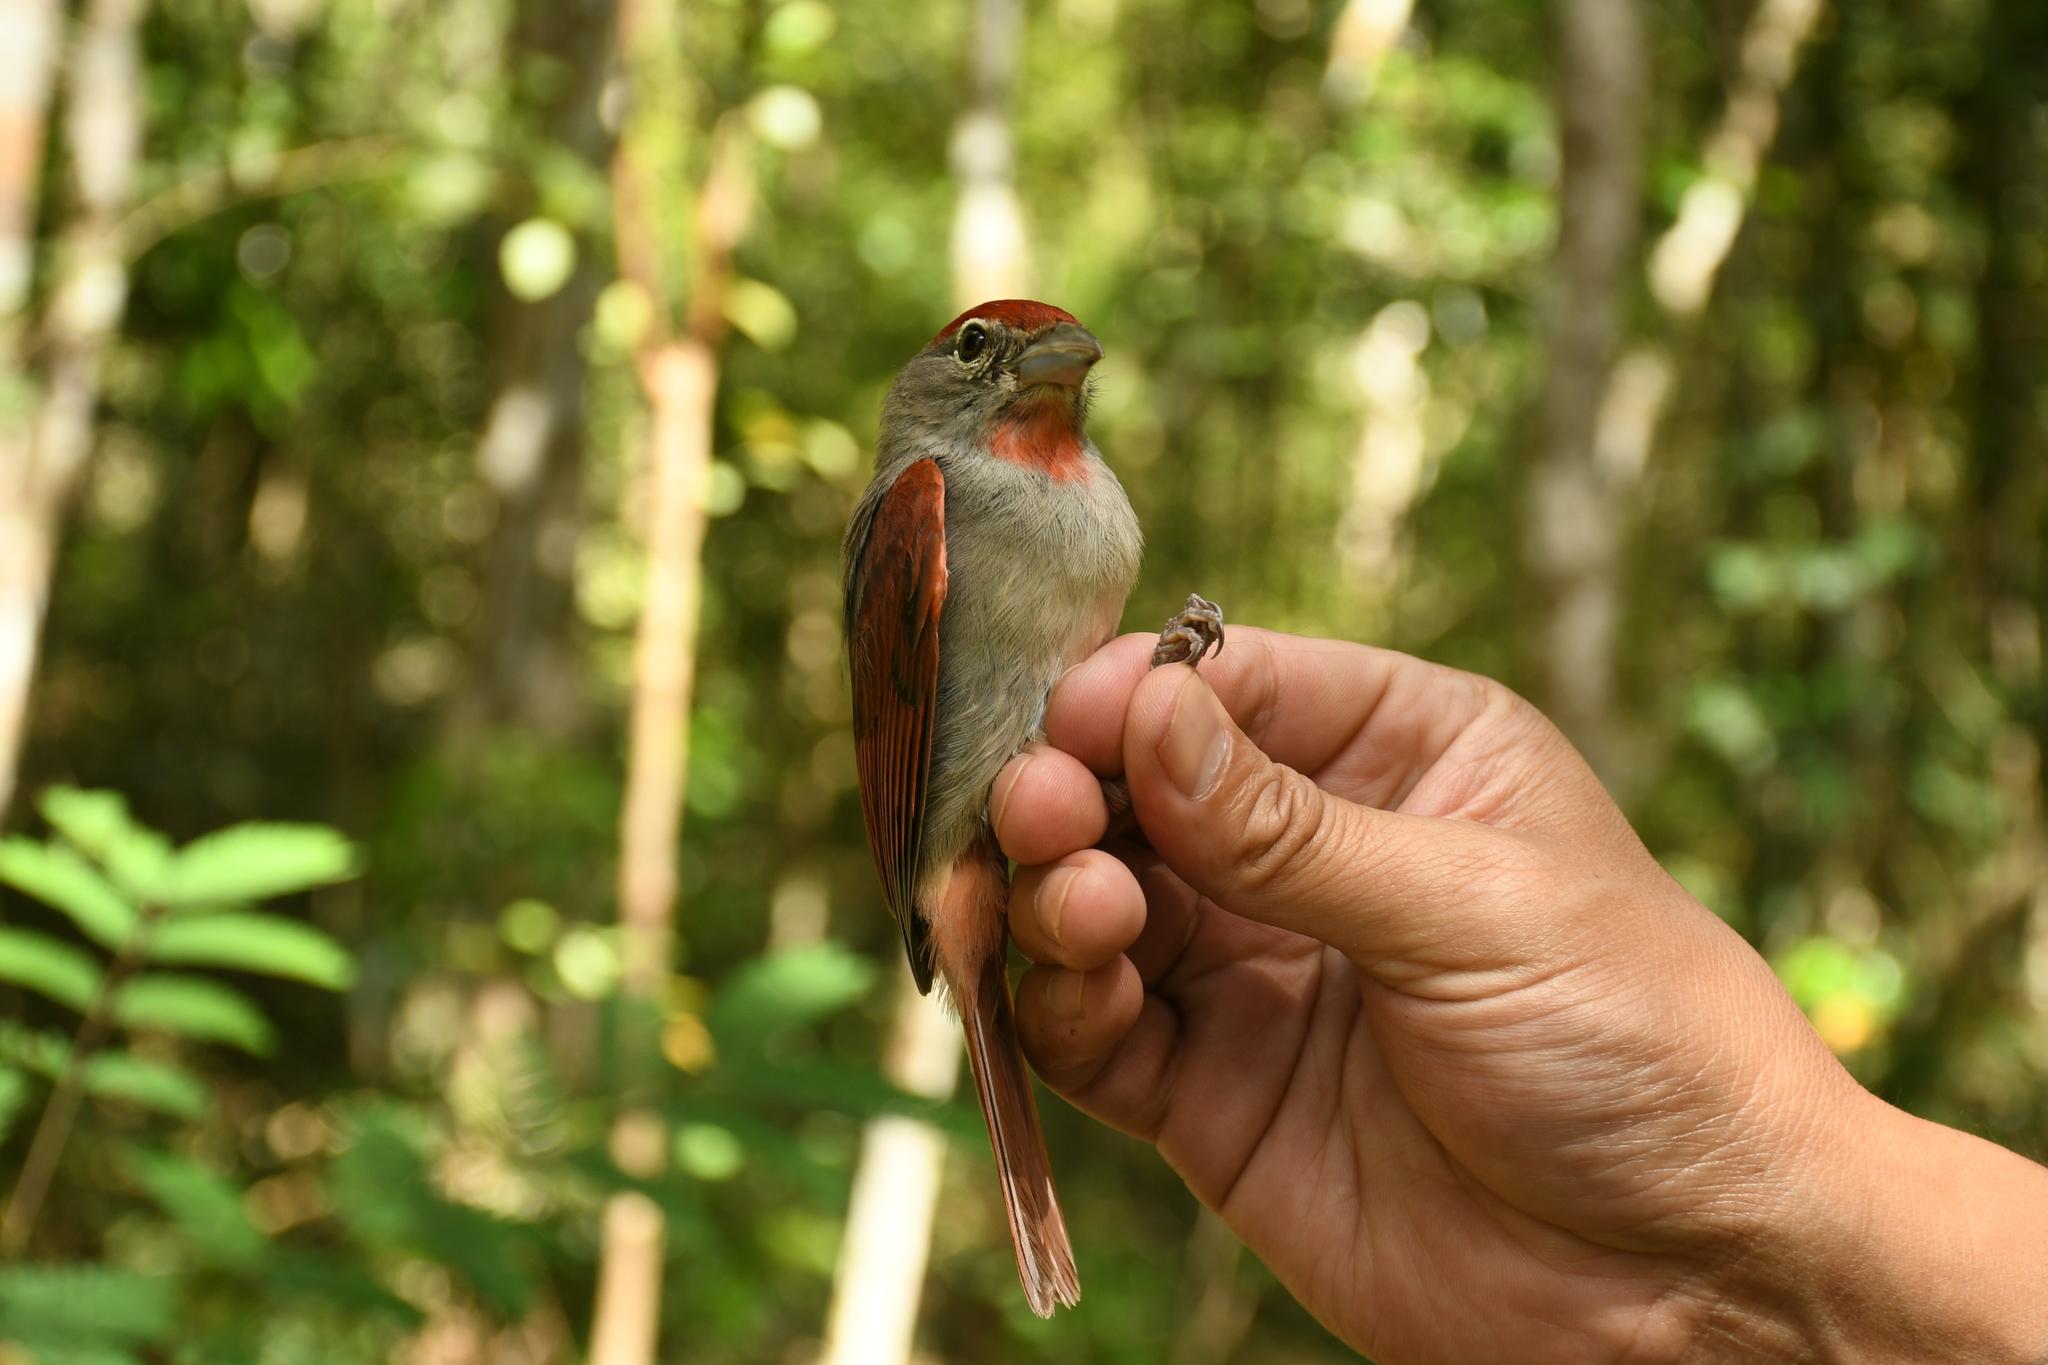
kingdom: Animalia
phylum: Chordata
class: Aves
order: Passeriformes
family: Cardinalidae
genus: Piranga
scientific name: Piranga roseogularis
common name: Rose-throated tanager
